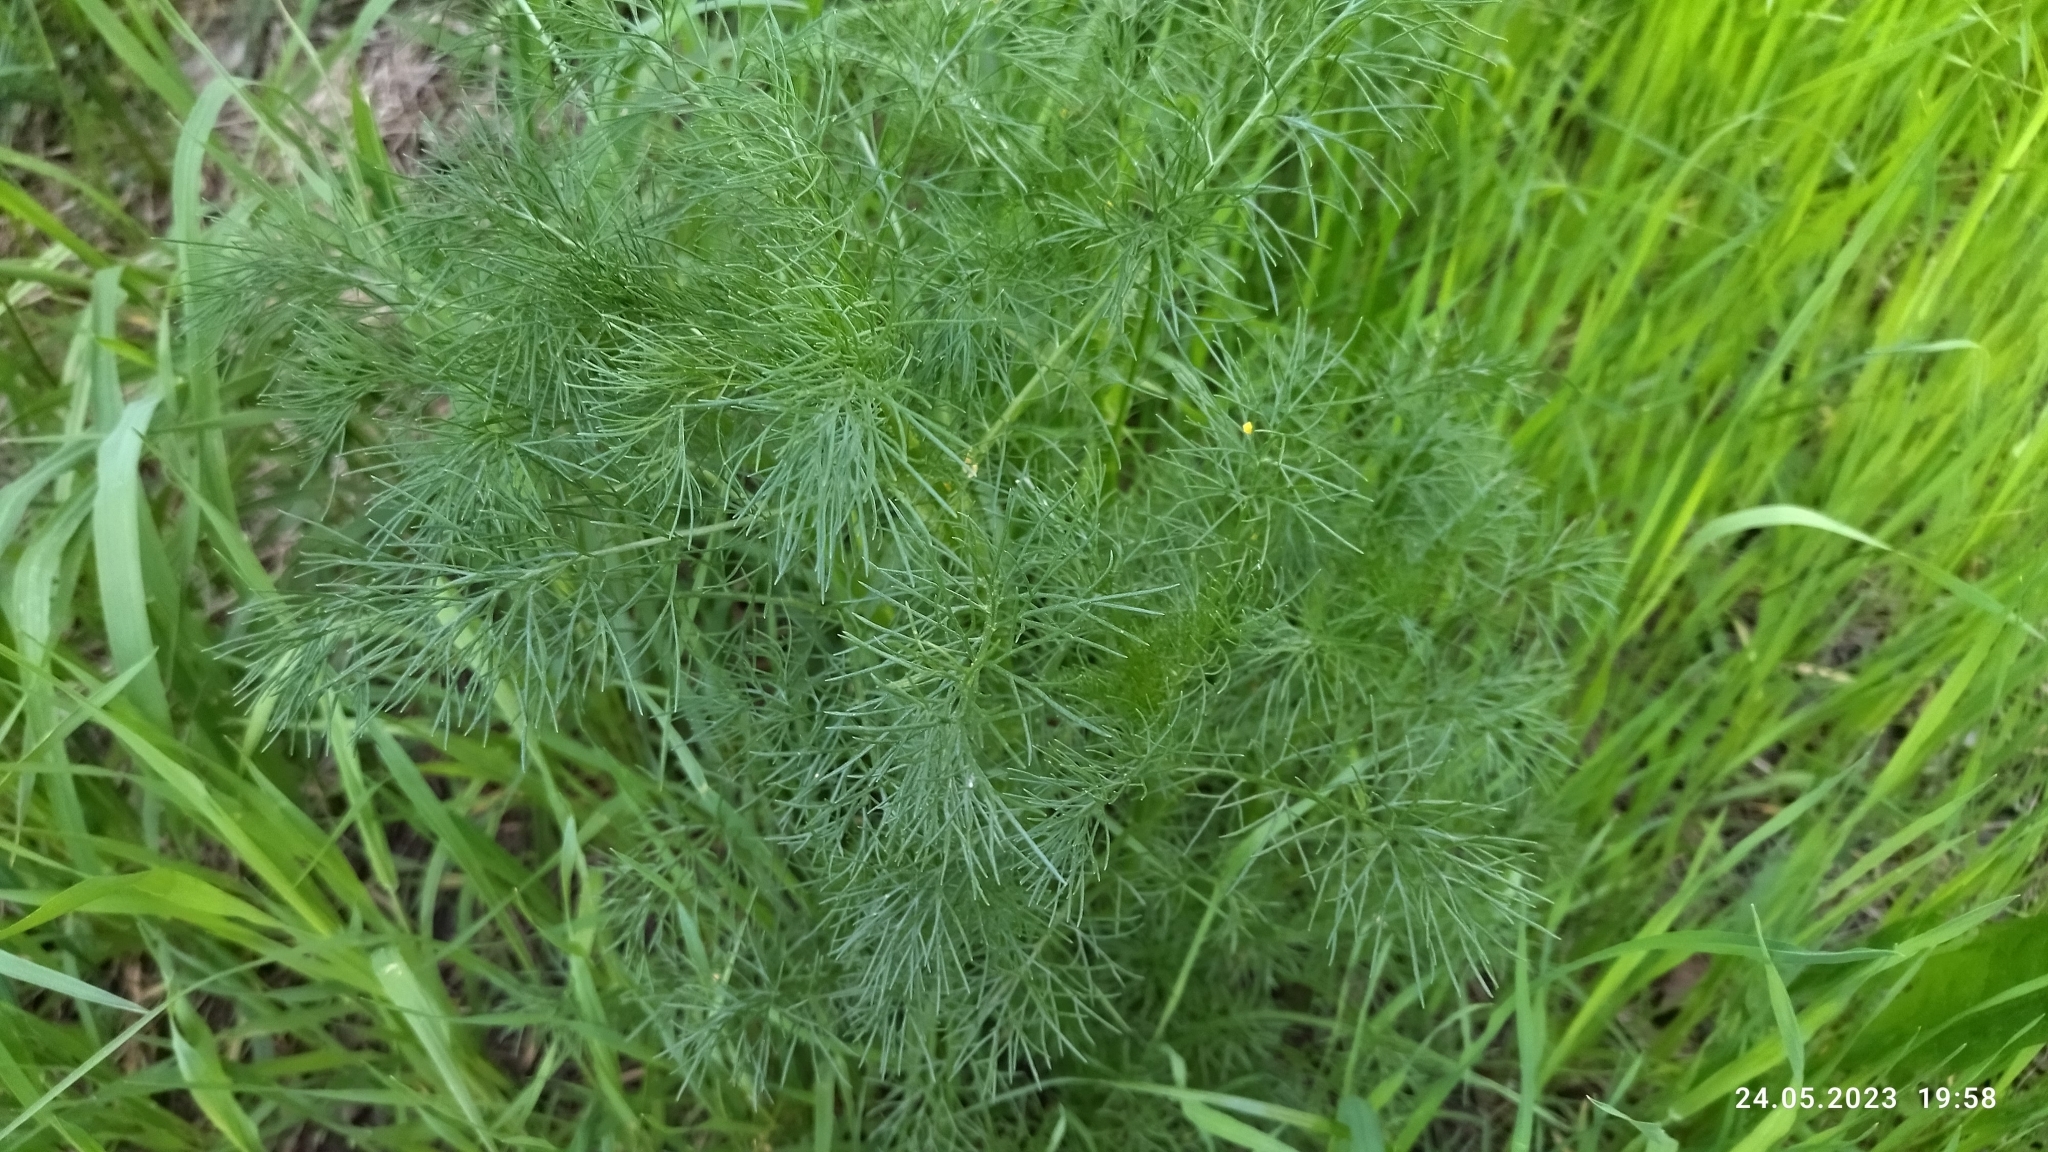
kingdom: Plantae
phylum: Tracheophyta
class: Magnoliopsida
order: Asterales
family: Asteraceae
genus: Tripleurospermum
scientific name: Tripleurospermum inodorum
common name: Scentless mayweed
